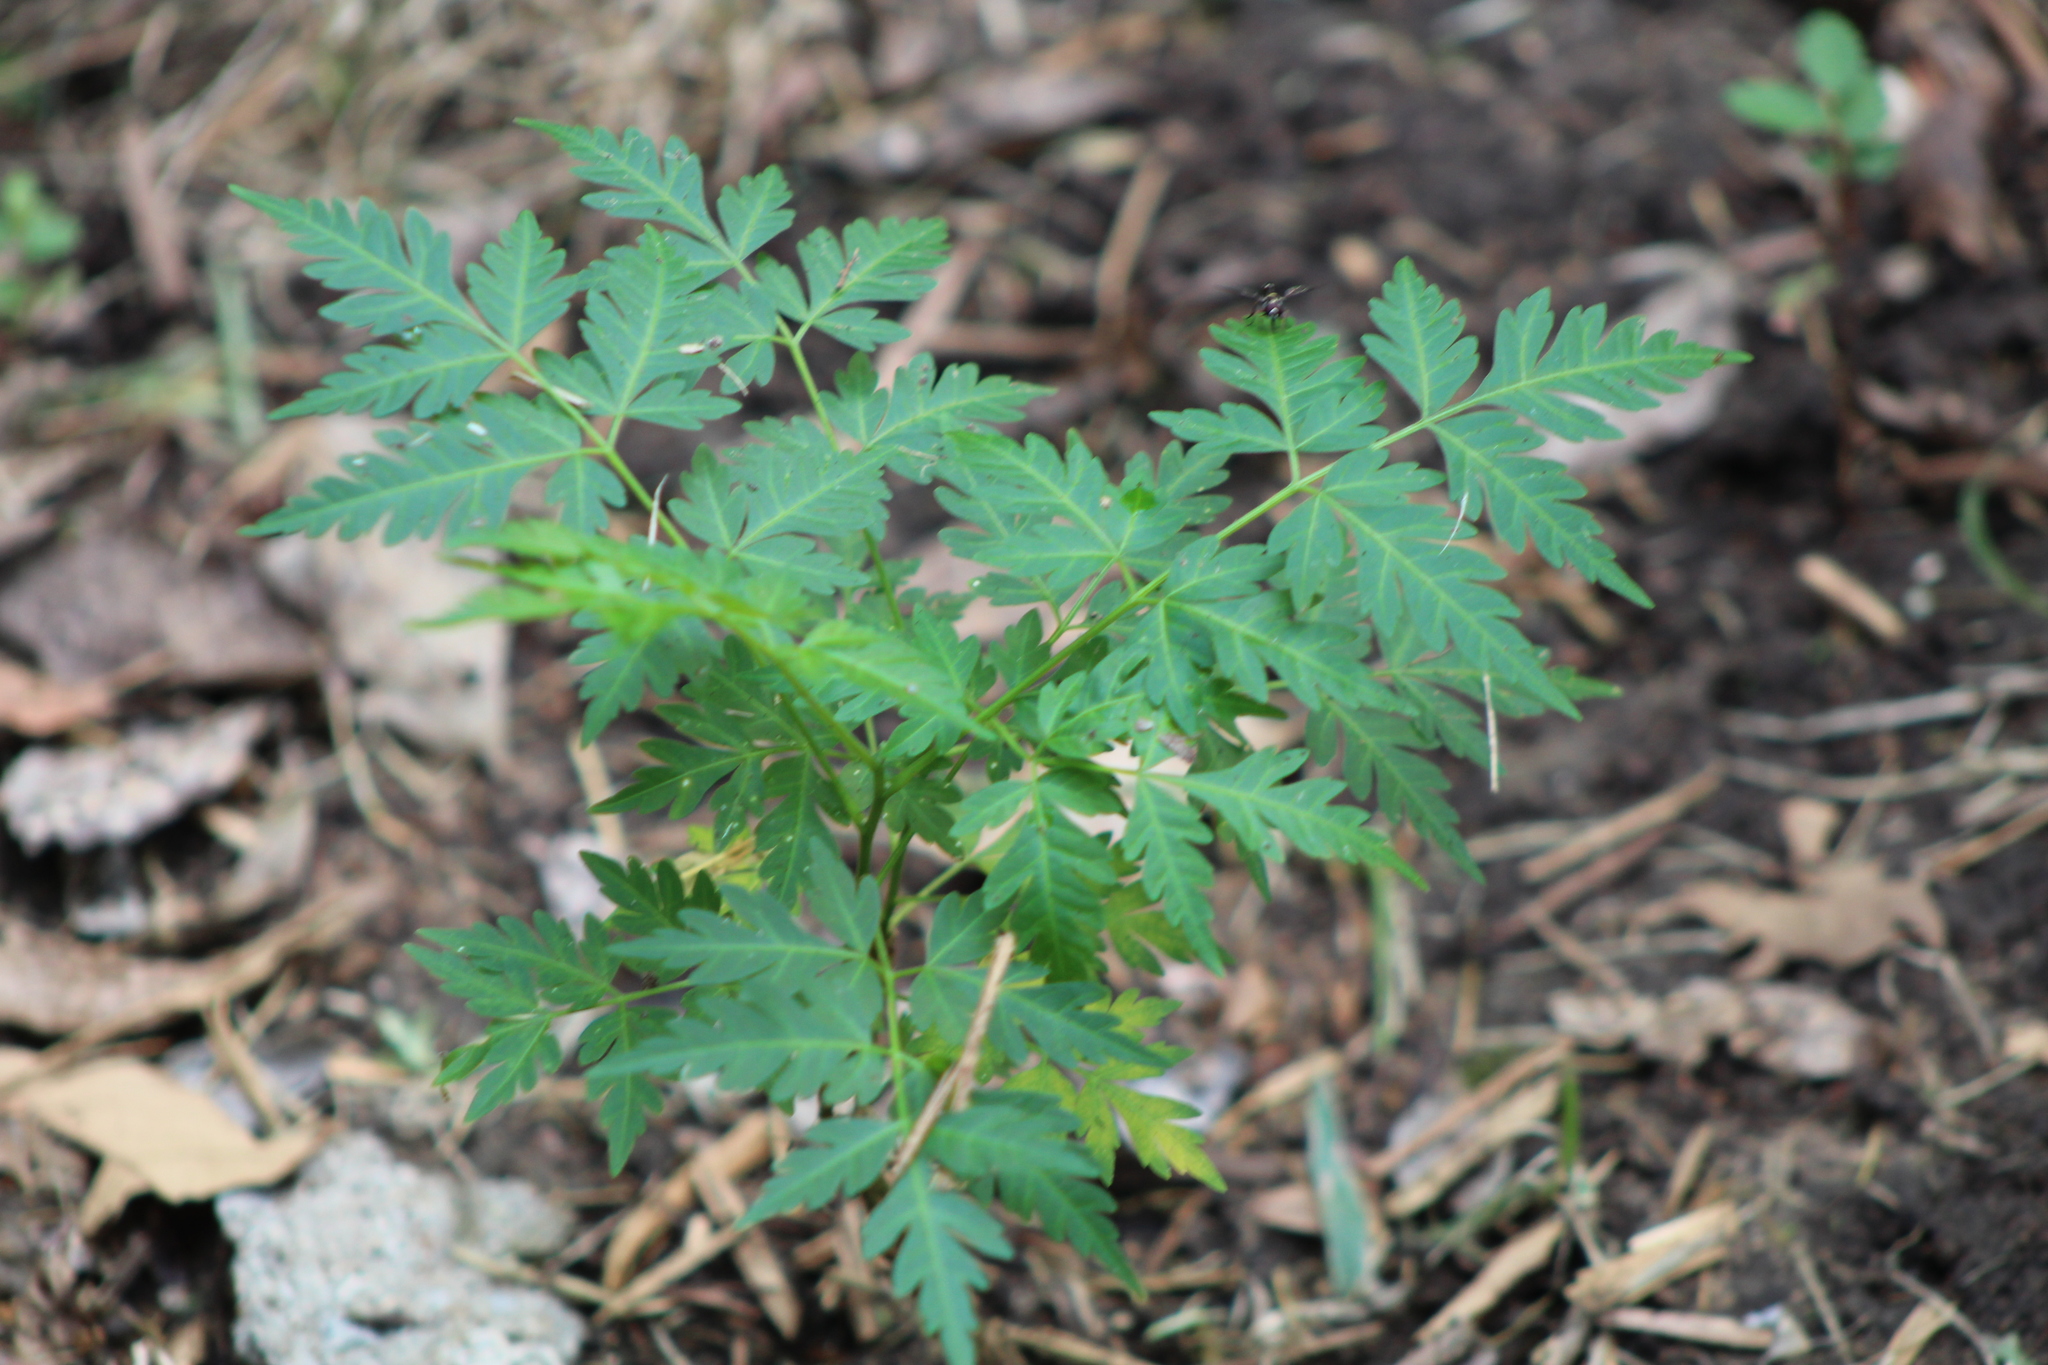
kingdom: Plantae
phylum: Tracheophyta
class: Magnoliopsida
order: Sapindales
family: Meliaceae
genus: Melia
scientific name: Melia azedarach
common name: Chinaberrytree
